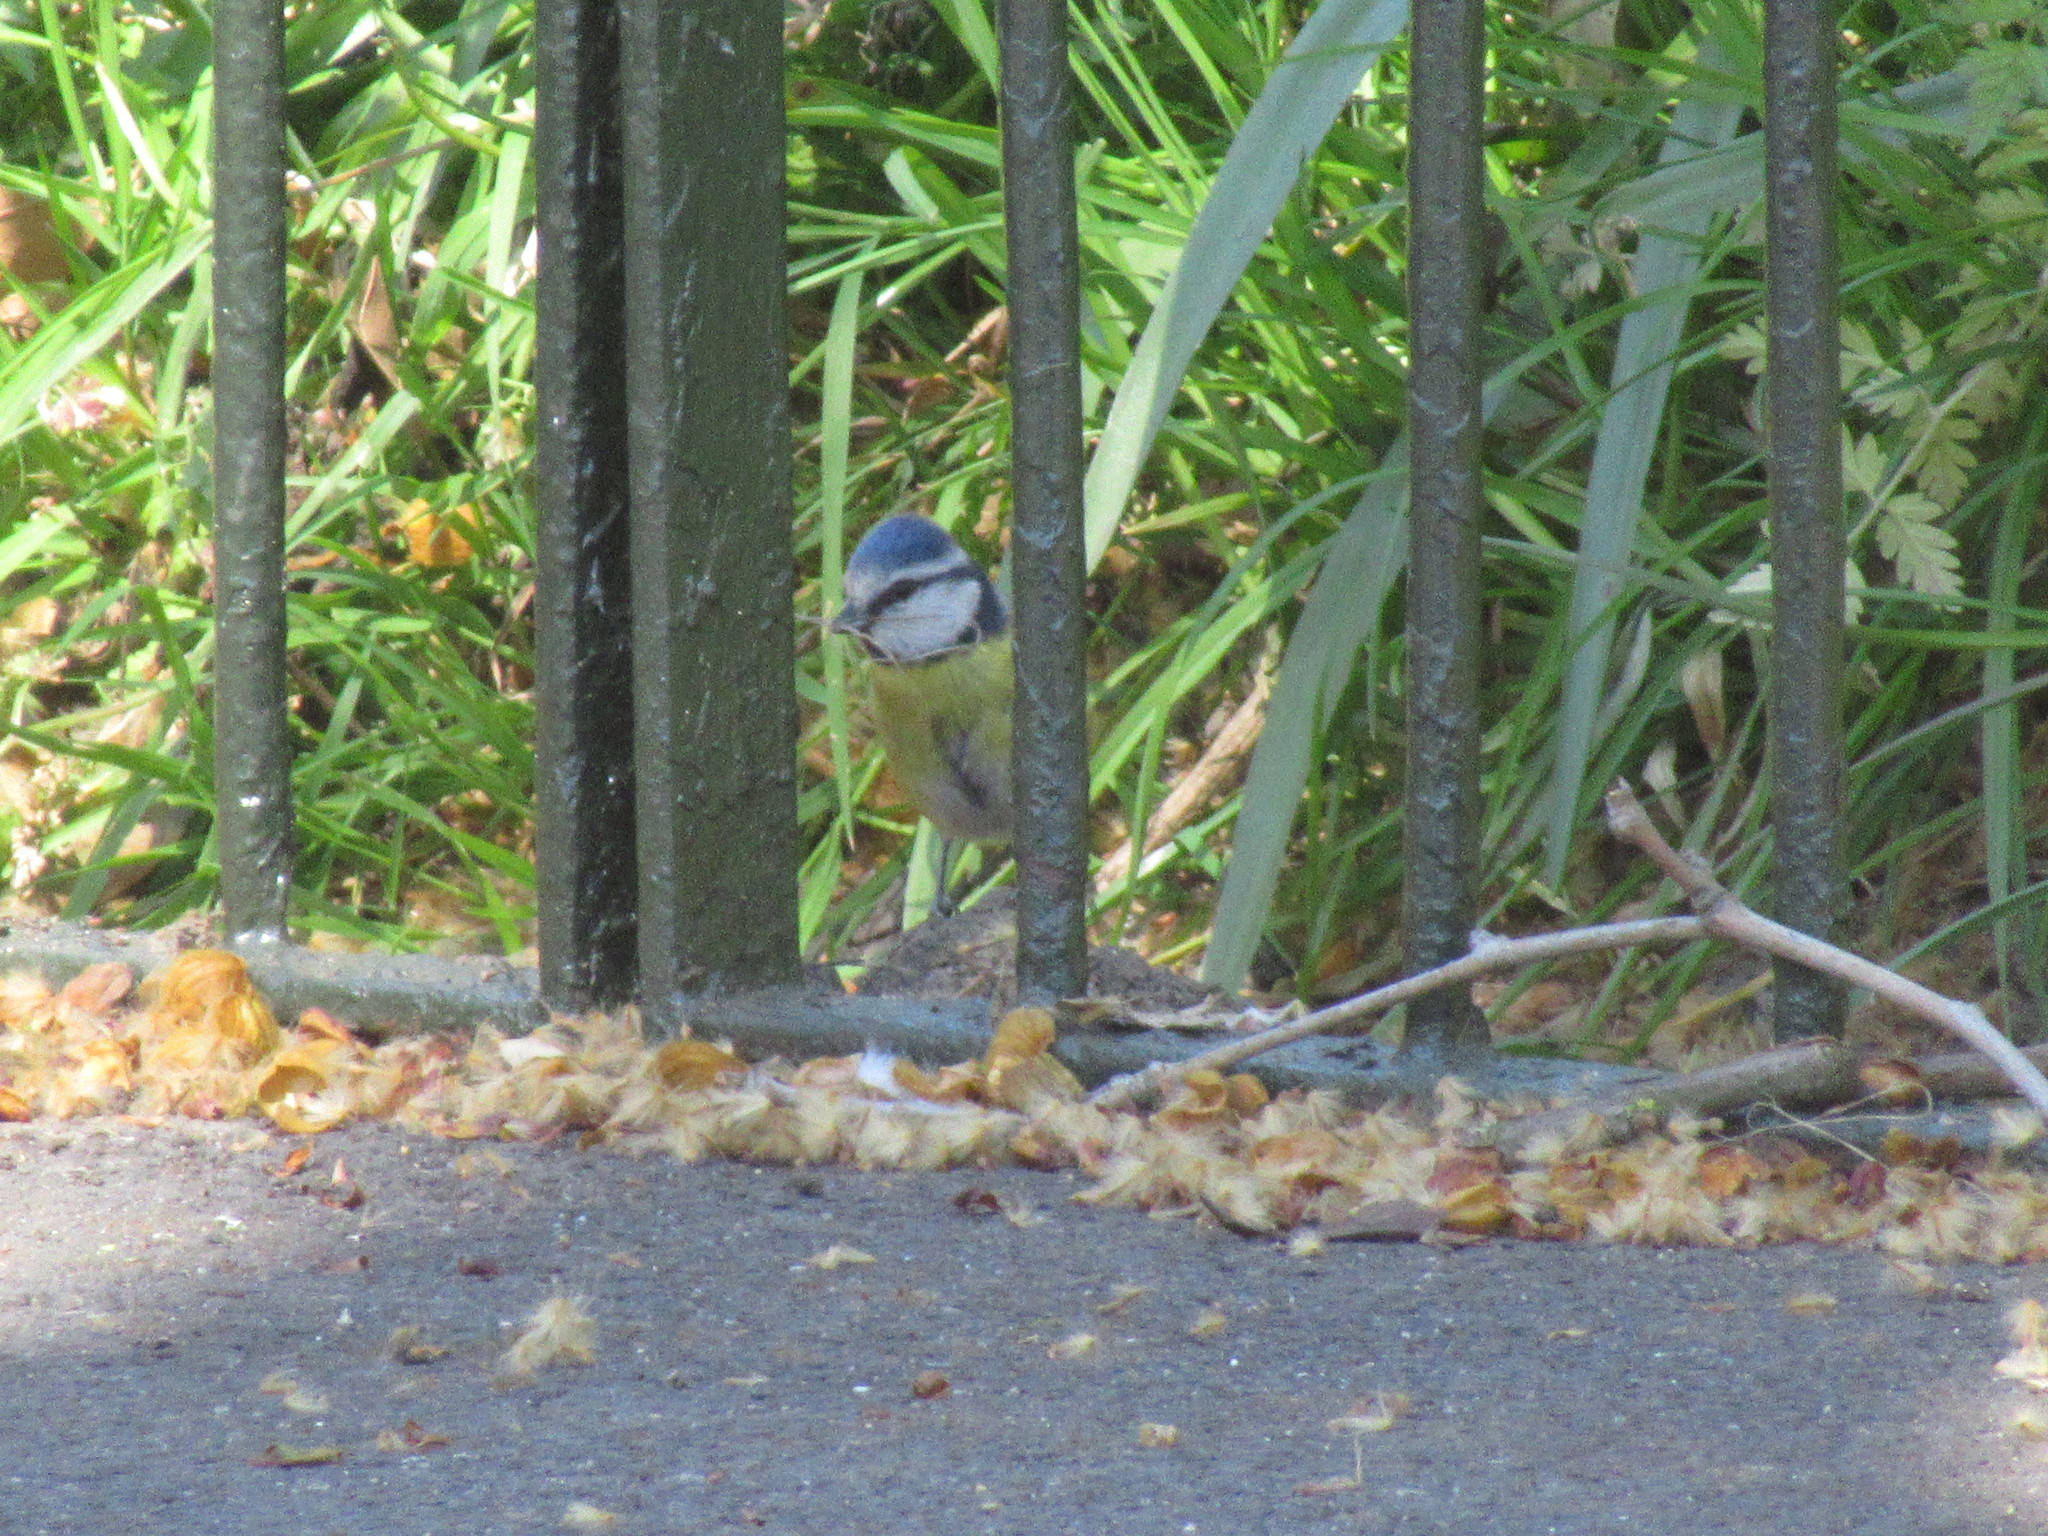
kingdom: Animalia
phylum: Chordata
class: Aves
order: Passeriformes
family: Paridae
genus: Cyanistes
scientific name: Cyanistes caeruleus
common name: Eurasian blue tit
